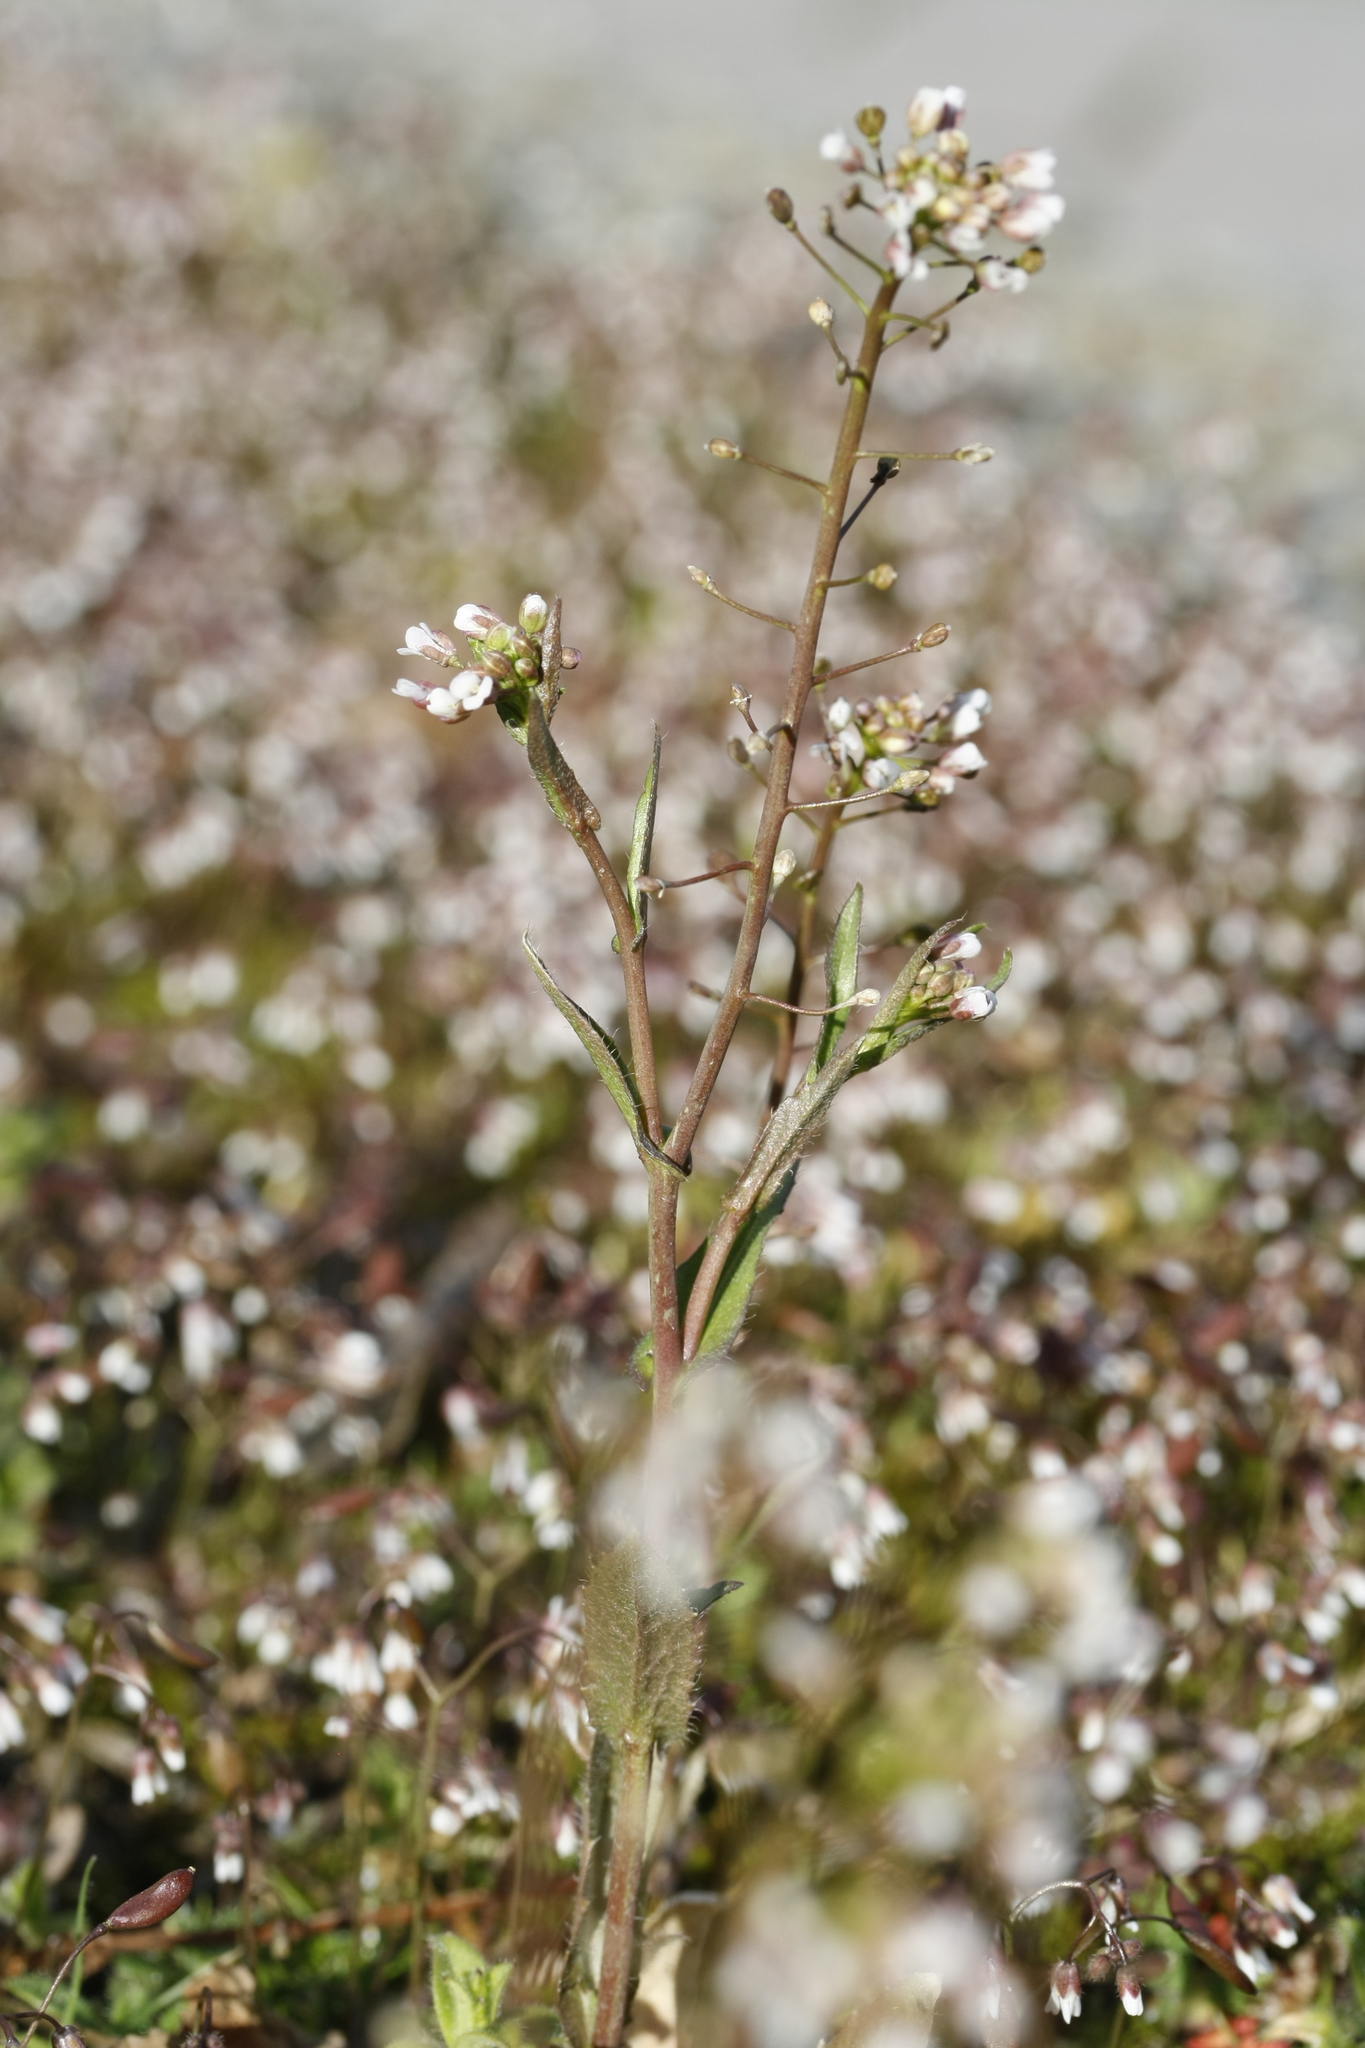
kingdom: Plantae
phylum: Tracheophyta
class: Magnoliopsida
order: Brassicales
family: Brassicaceae
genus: Capsella
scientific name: Capsella bursa-pastoris
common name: Shepherd's purse
